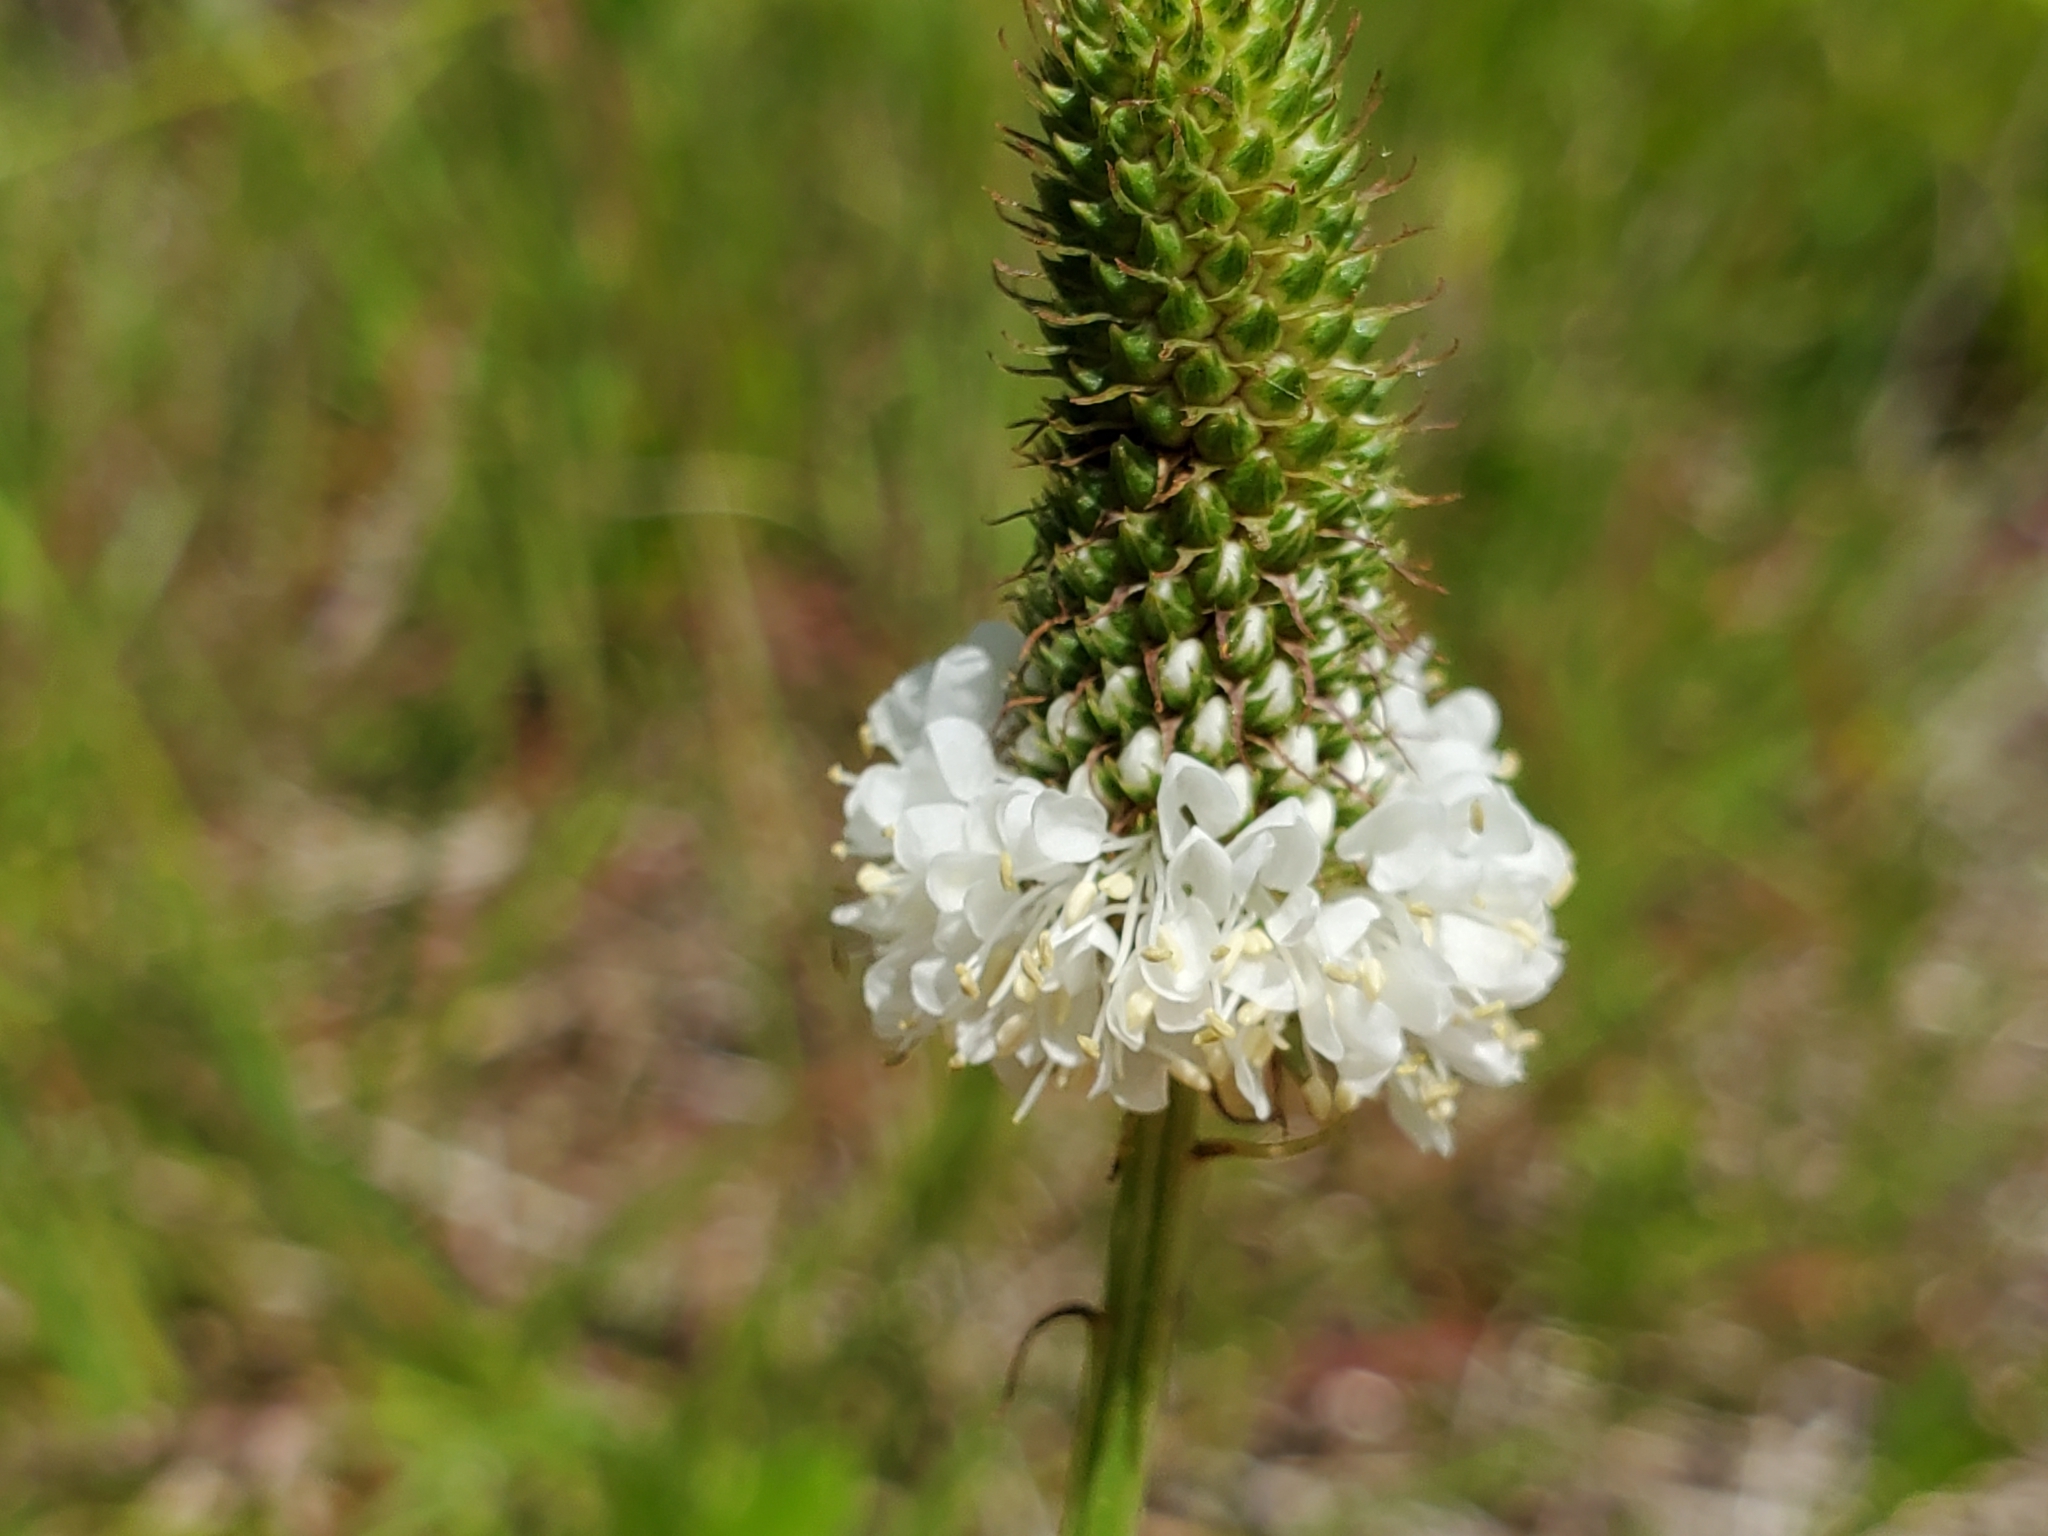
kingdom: Plantae
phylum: Tracheophyta
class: Magnoliopsida
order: Fabales
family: Fabaceae
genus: Dalea
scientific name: Dalea candida
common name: White prairie-clover
